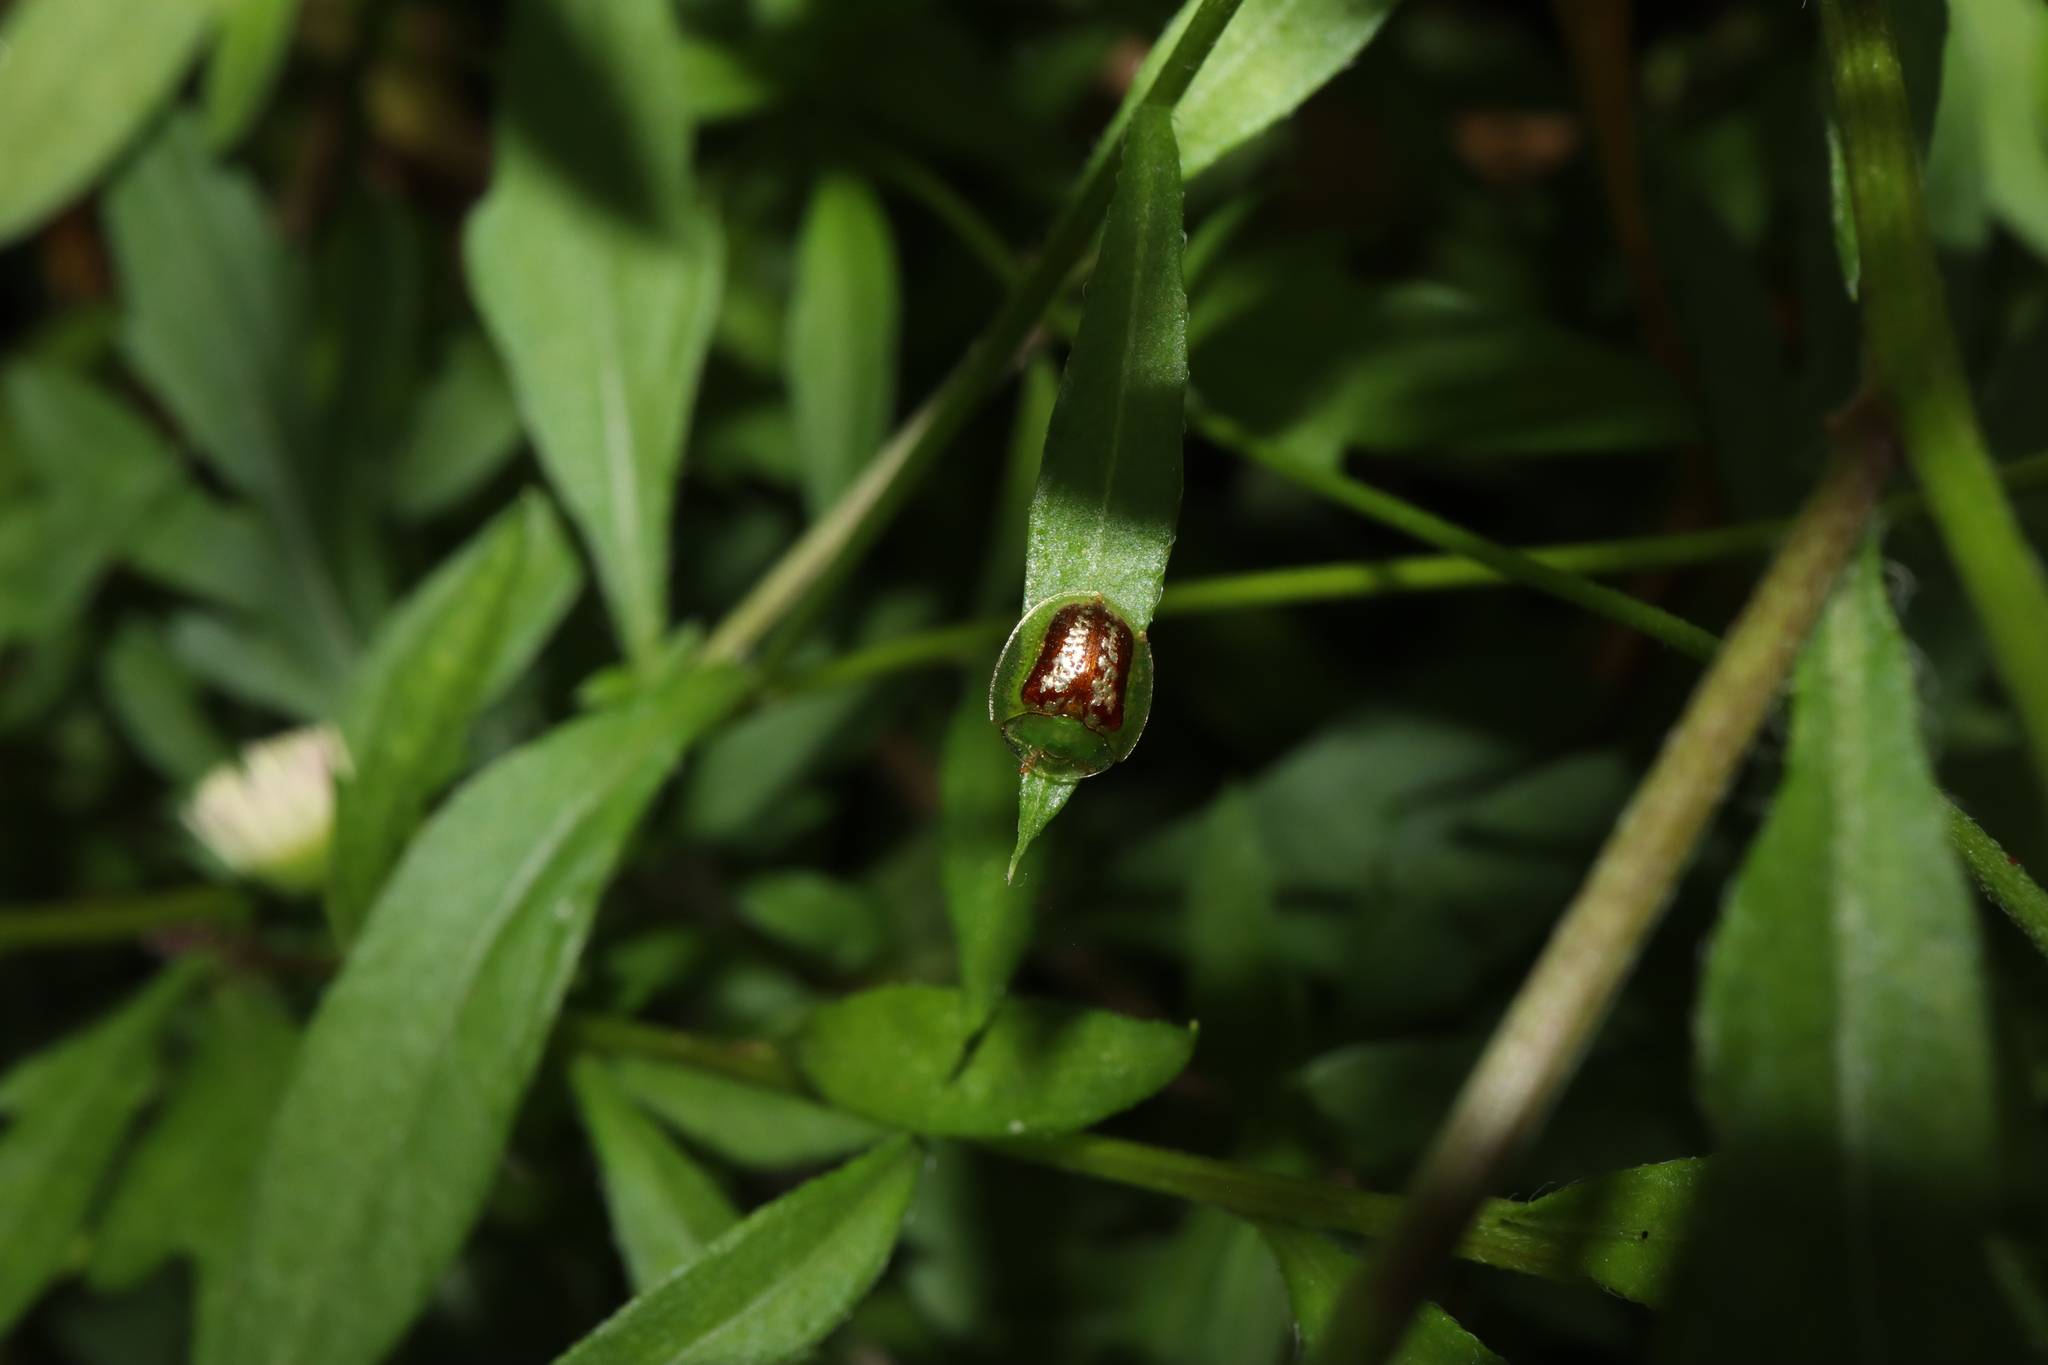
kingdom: Animalia
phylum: Arthropoda
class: Insecta
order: Coleoptera
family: Chrysomelidae
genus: Cassida
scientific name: Cassida compuncta
